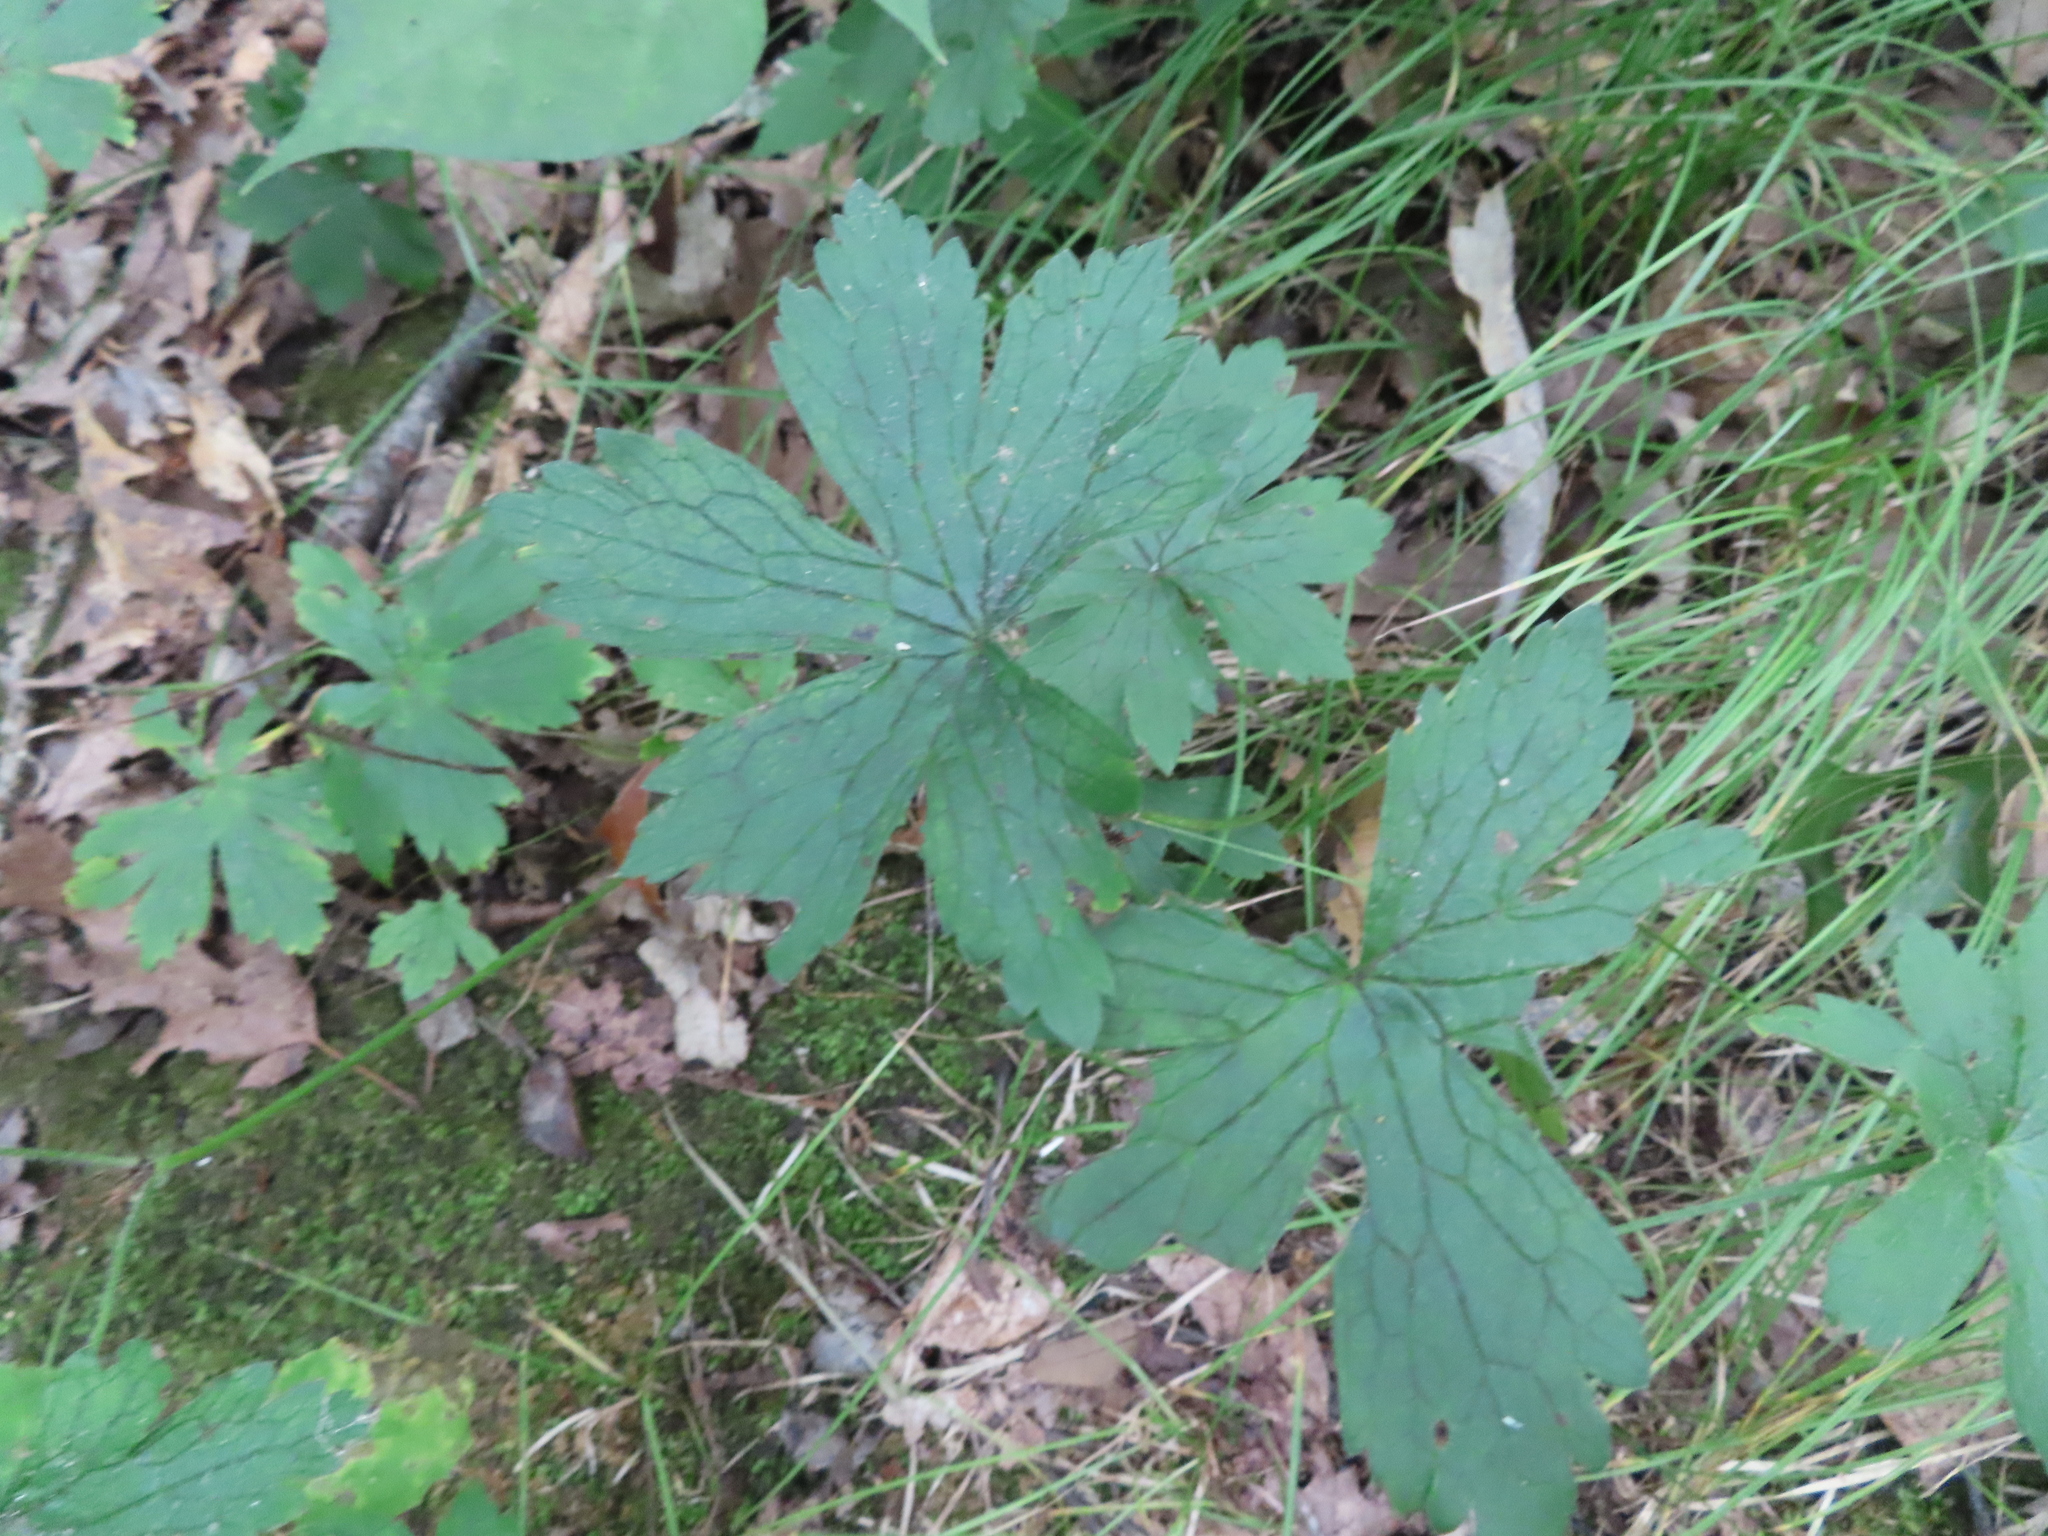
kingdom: Plantae
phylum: Tracheophyta
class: Magnoliopsida
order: Geraniales
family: Geraniaceae
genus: Geranium
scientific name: Geranium maculatum
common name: Spotted geranium
